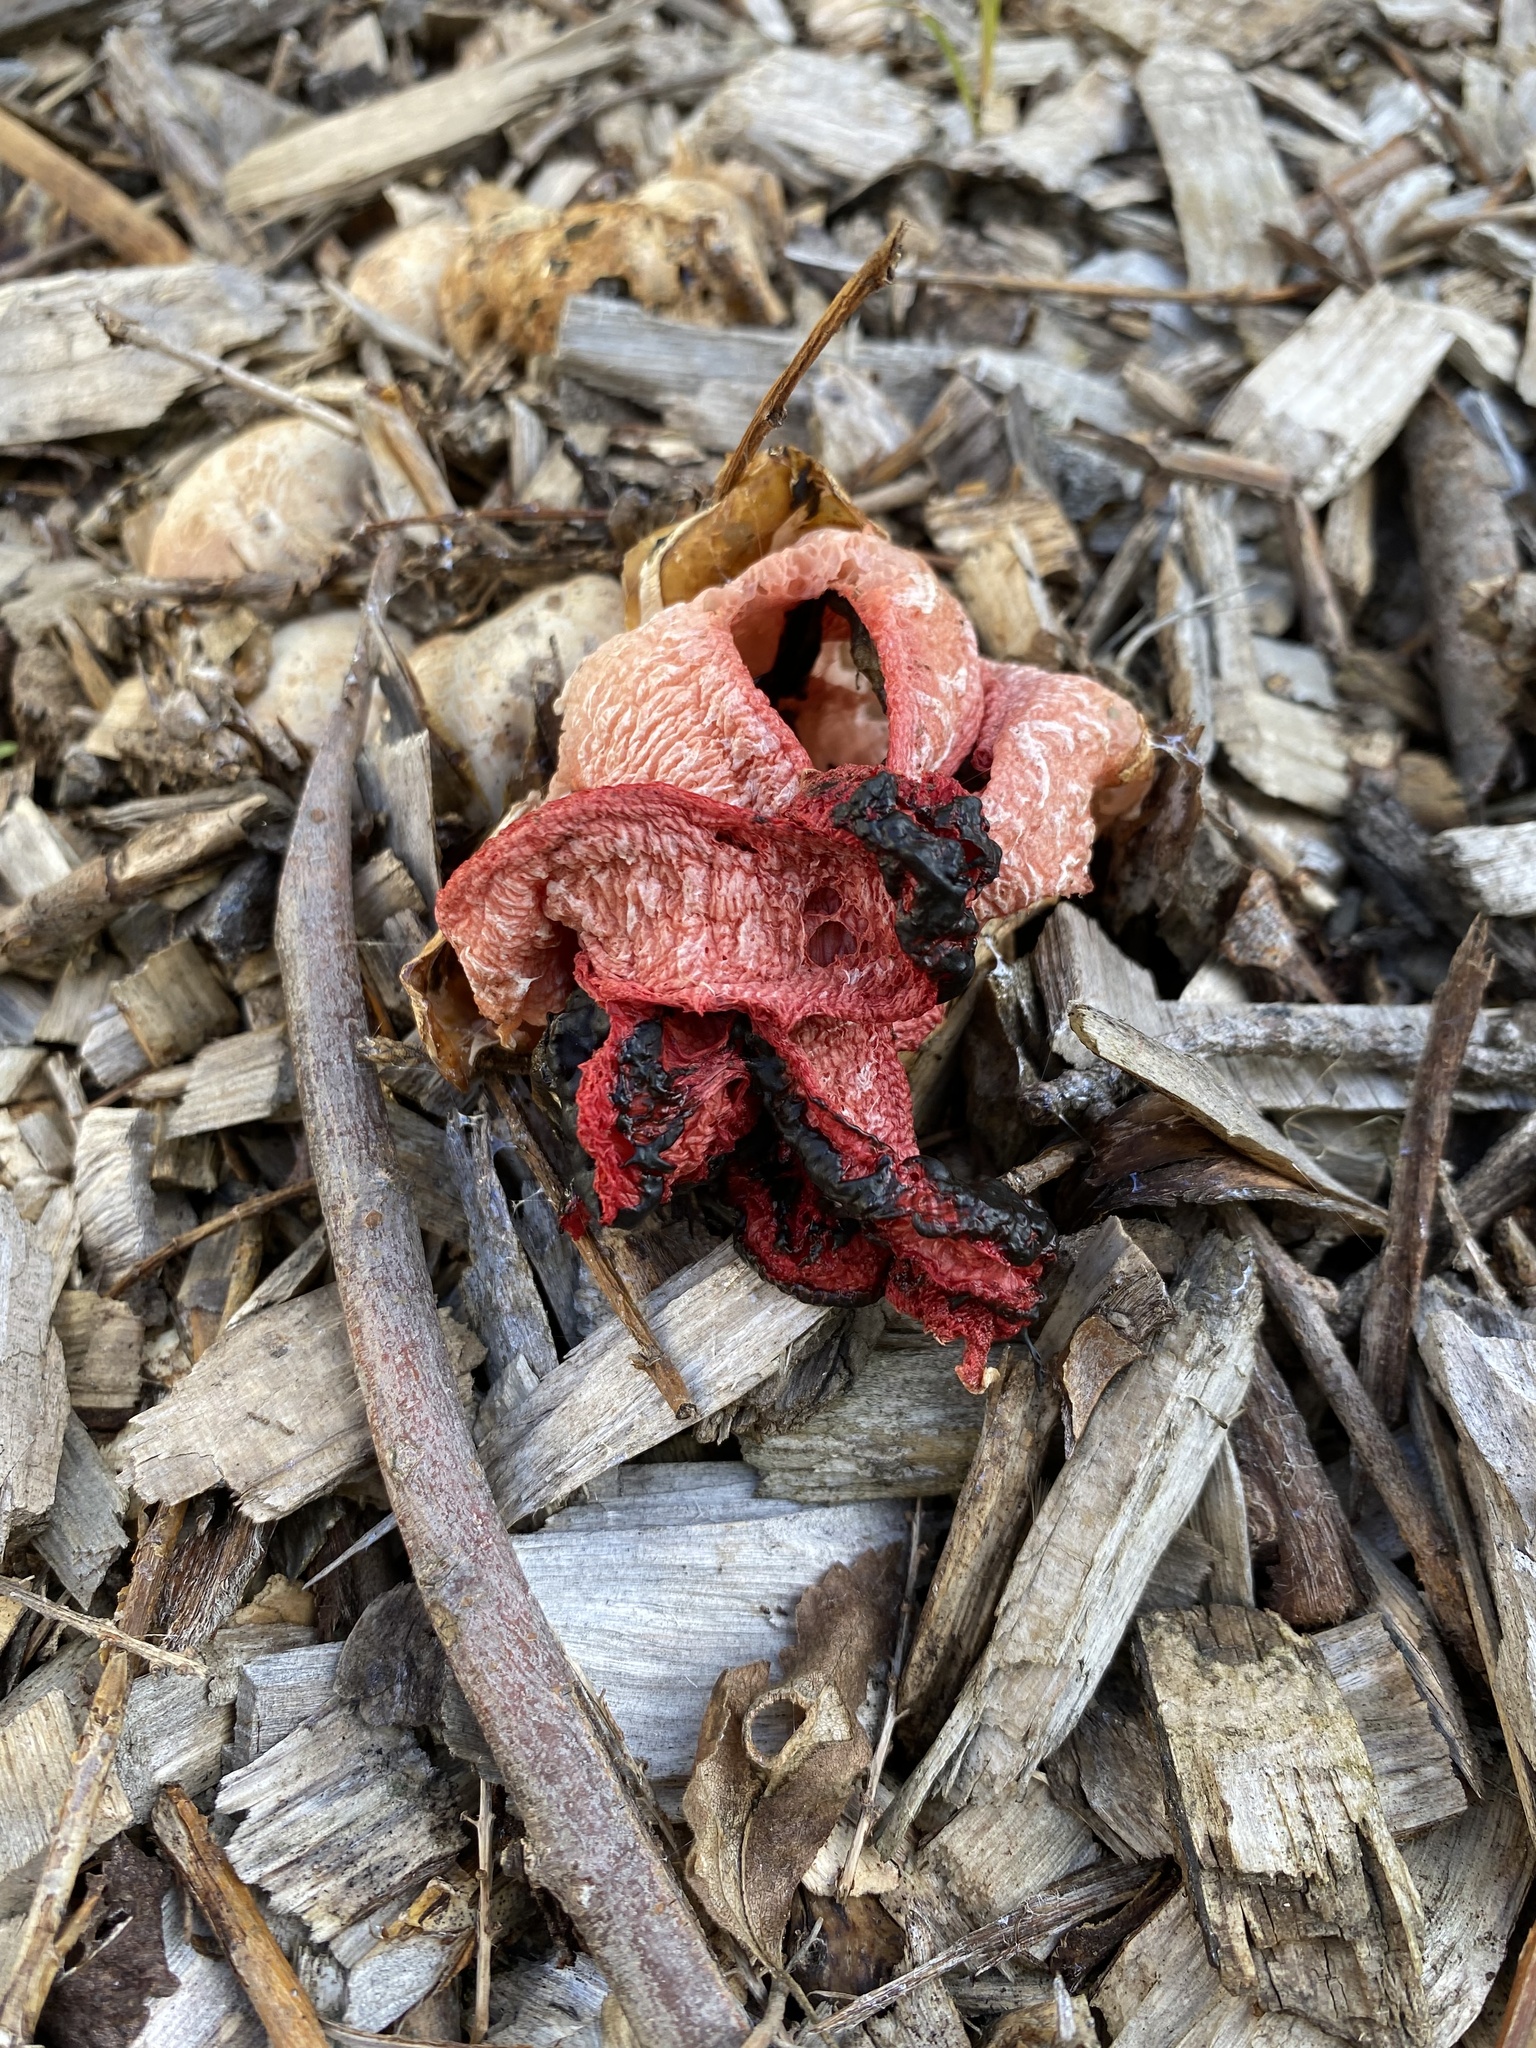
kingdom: Fungi
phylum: Basidiomycota
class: Agaricomycetes
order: Phallales
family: Phallaceae
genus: Clathrus
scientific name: Clathrus archeri
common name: Devil's fingers
